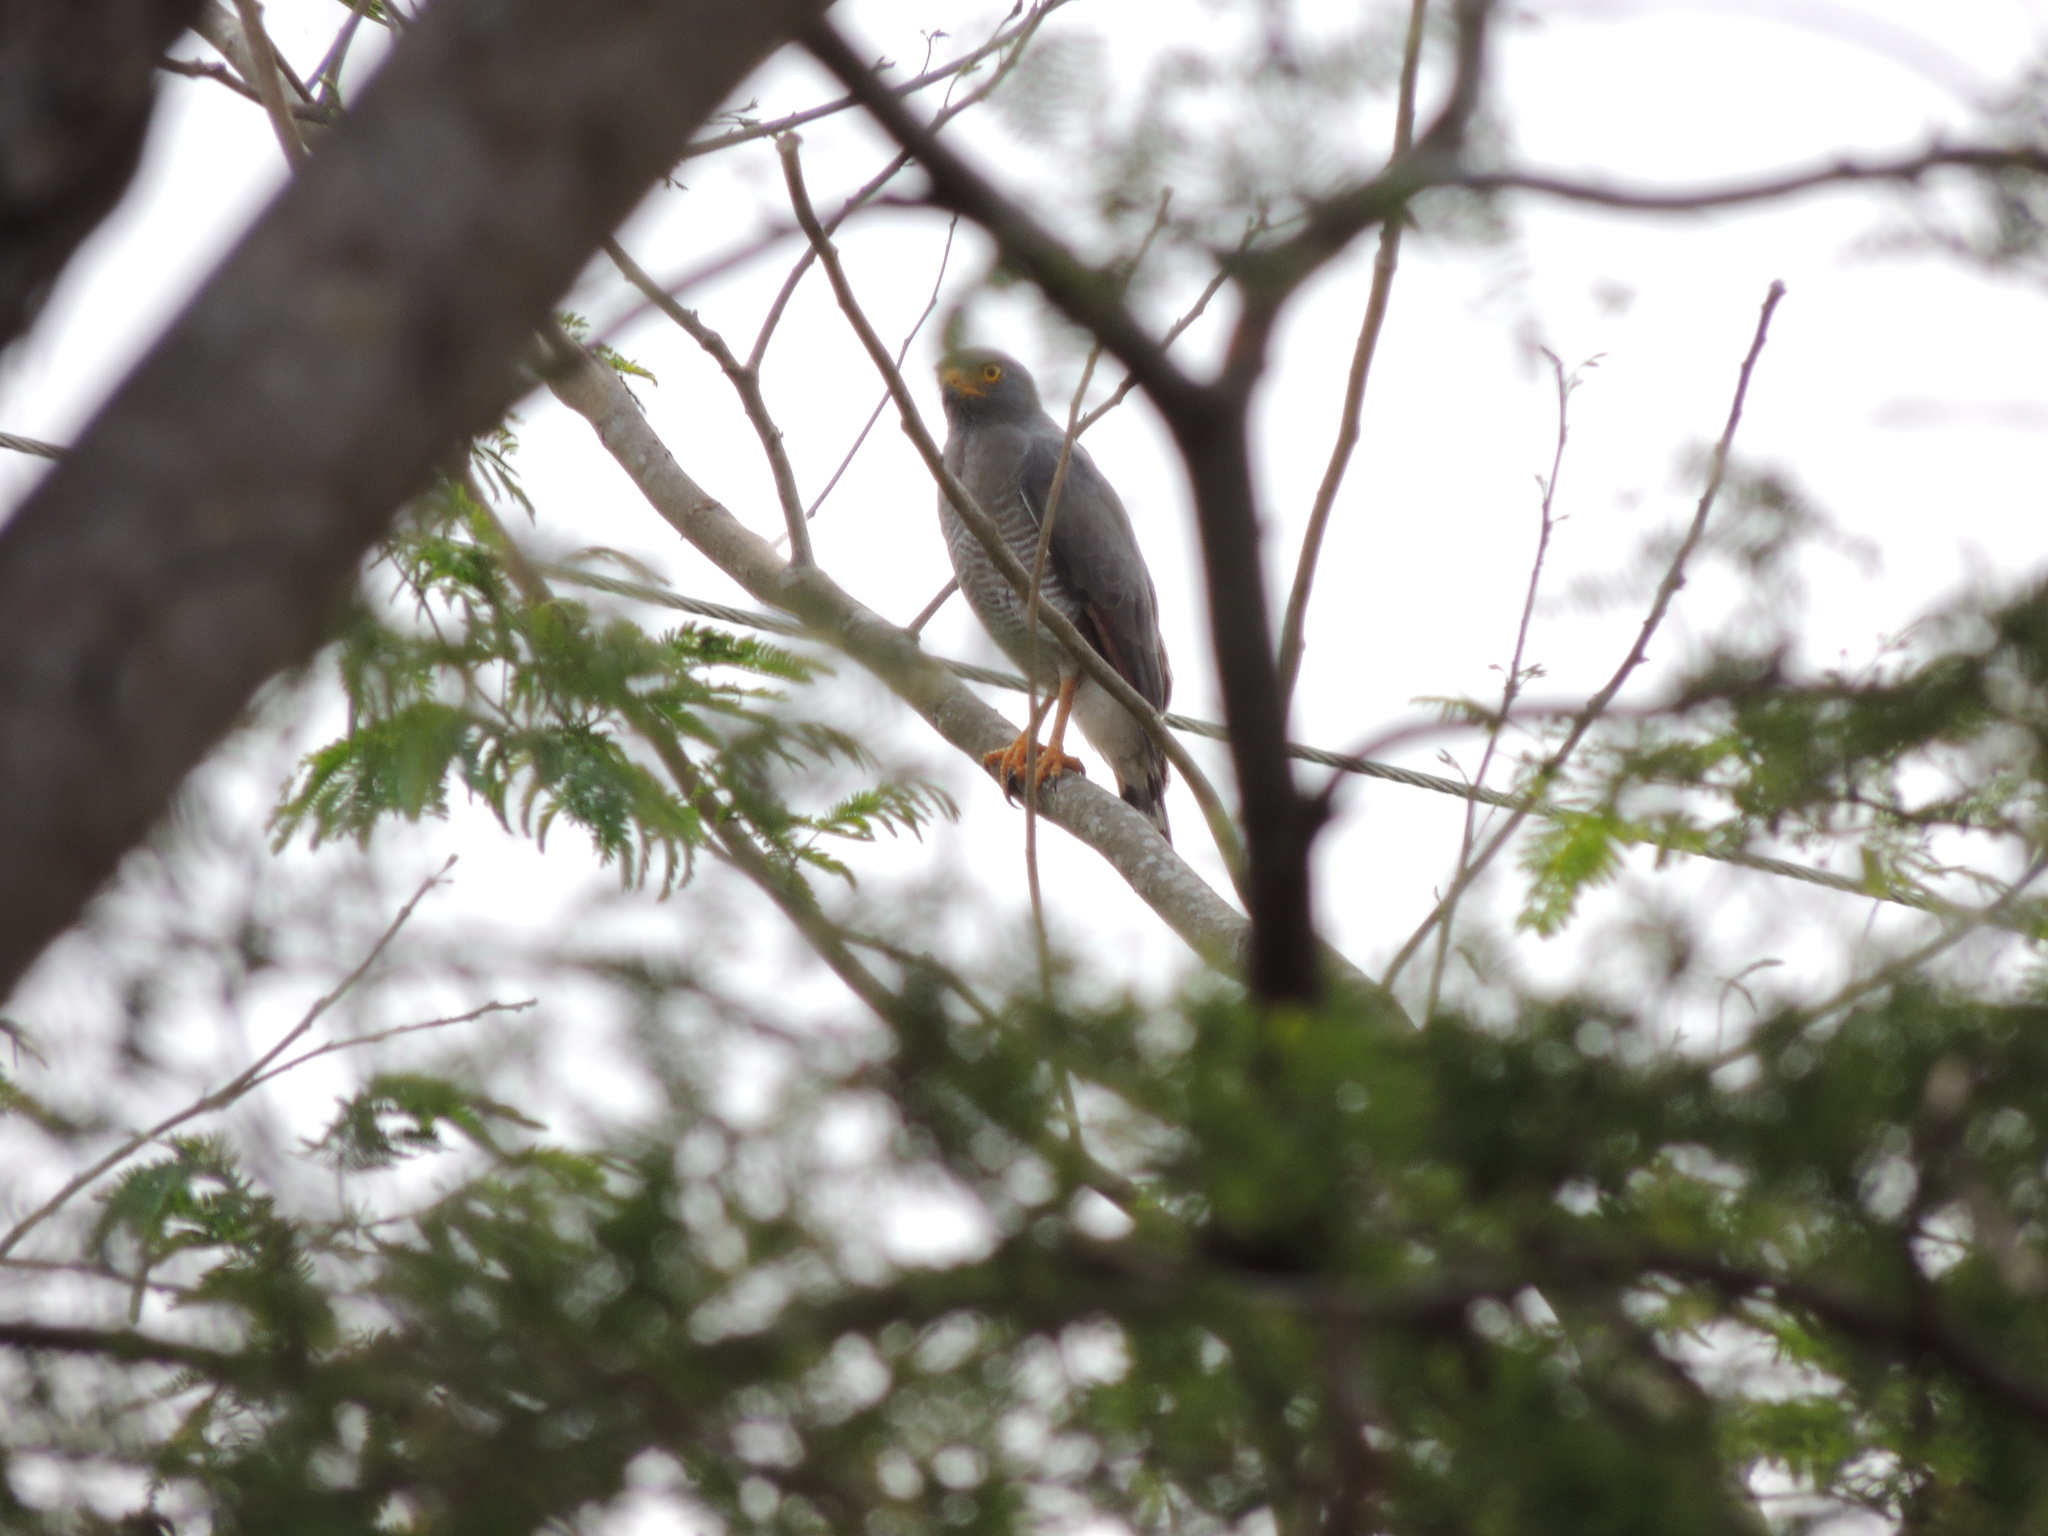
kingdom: Animalia
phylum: Chordata
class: Aves
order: Accipitriformes
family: Accipitridae
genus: Rupornis
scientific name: Rupornis magnirostris
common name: Roadside hawk
